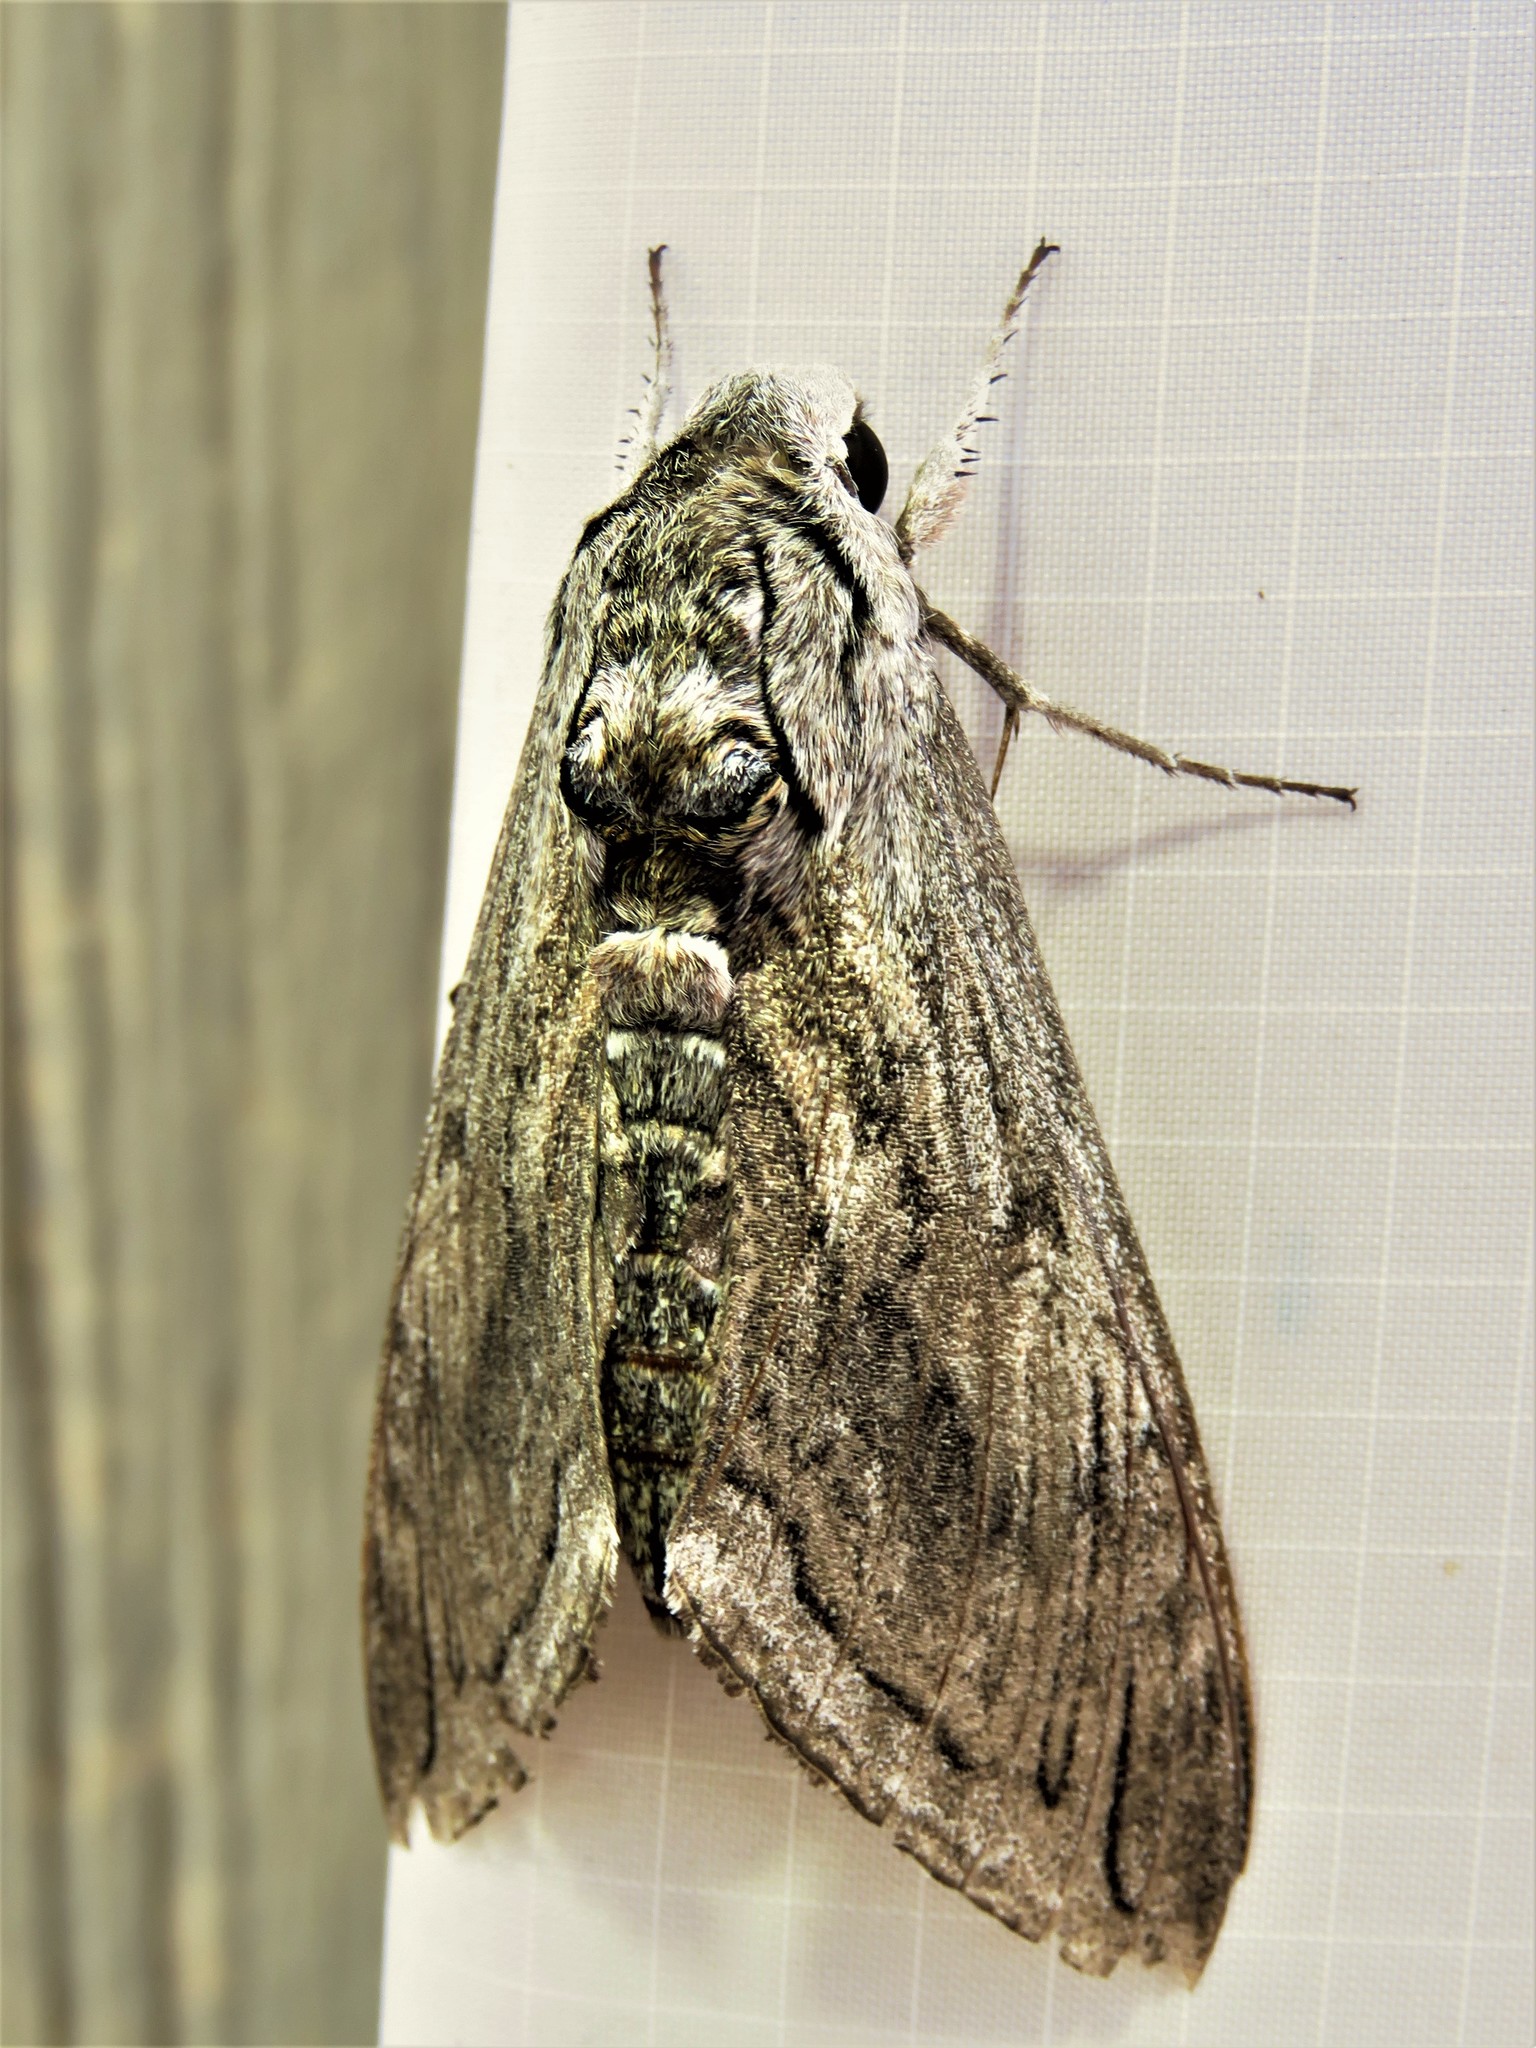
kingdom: Animalia
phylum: Arthropoda
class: Insecta
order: Lepidoptera
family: Sphingidae
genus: Manduca
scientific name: Manduca quinquemaculatus
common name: Five-spotted hawk-moth
